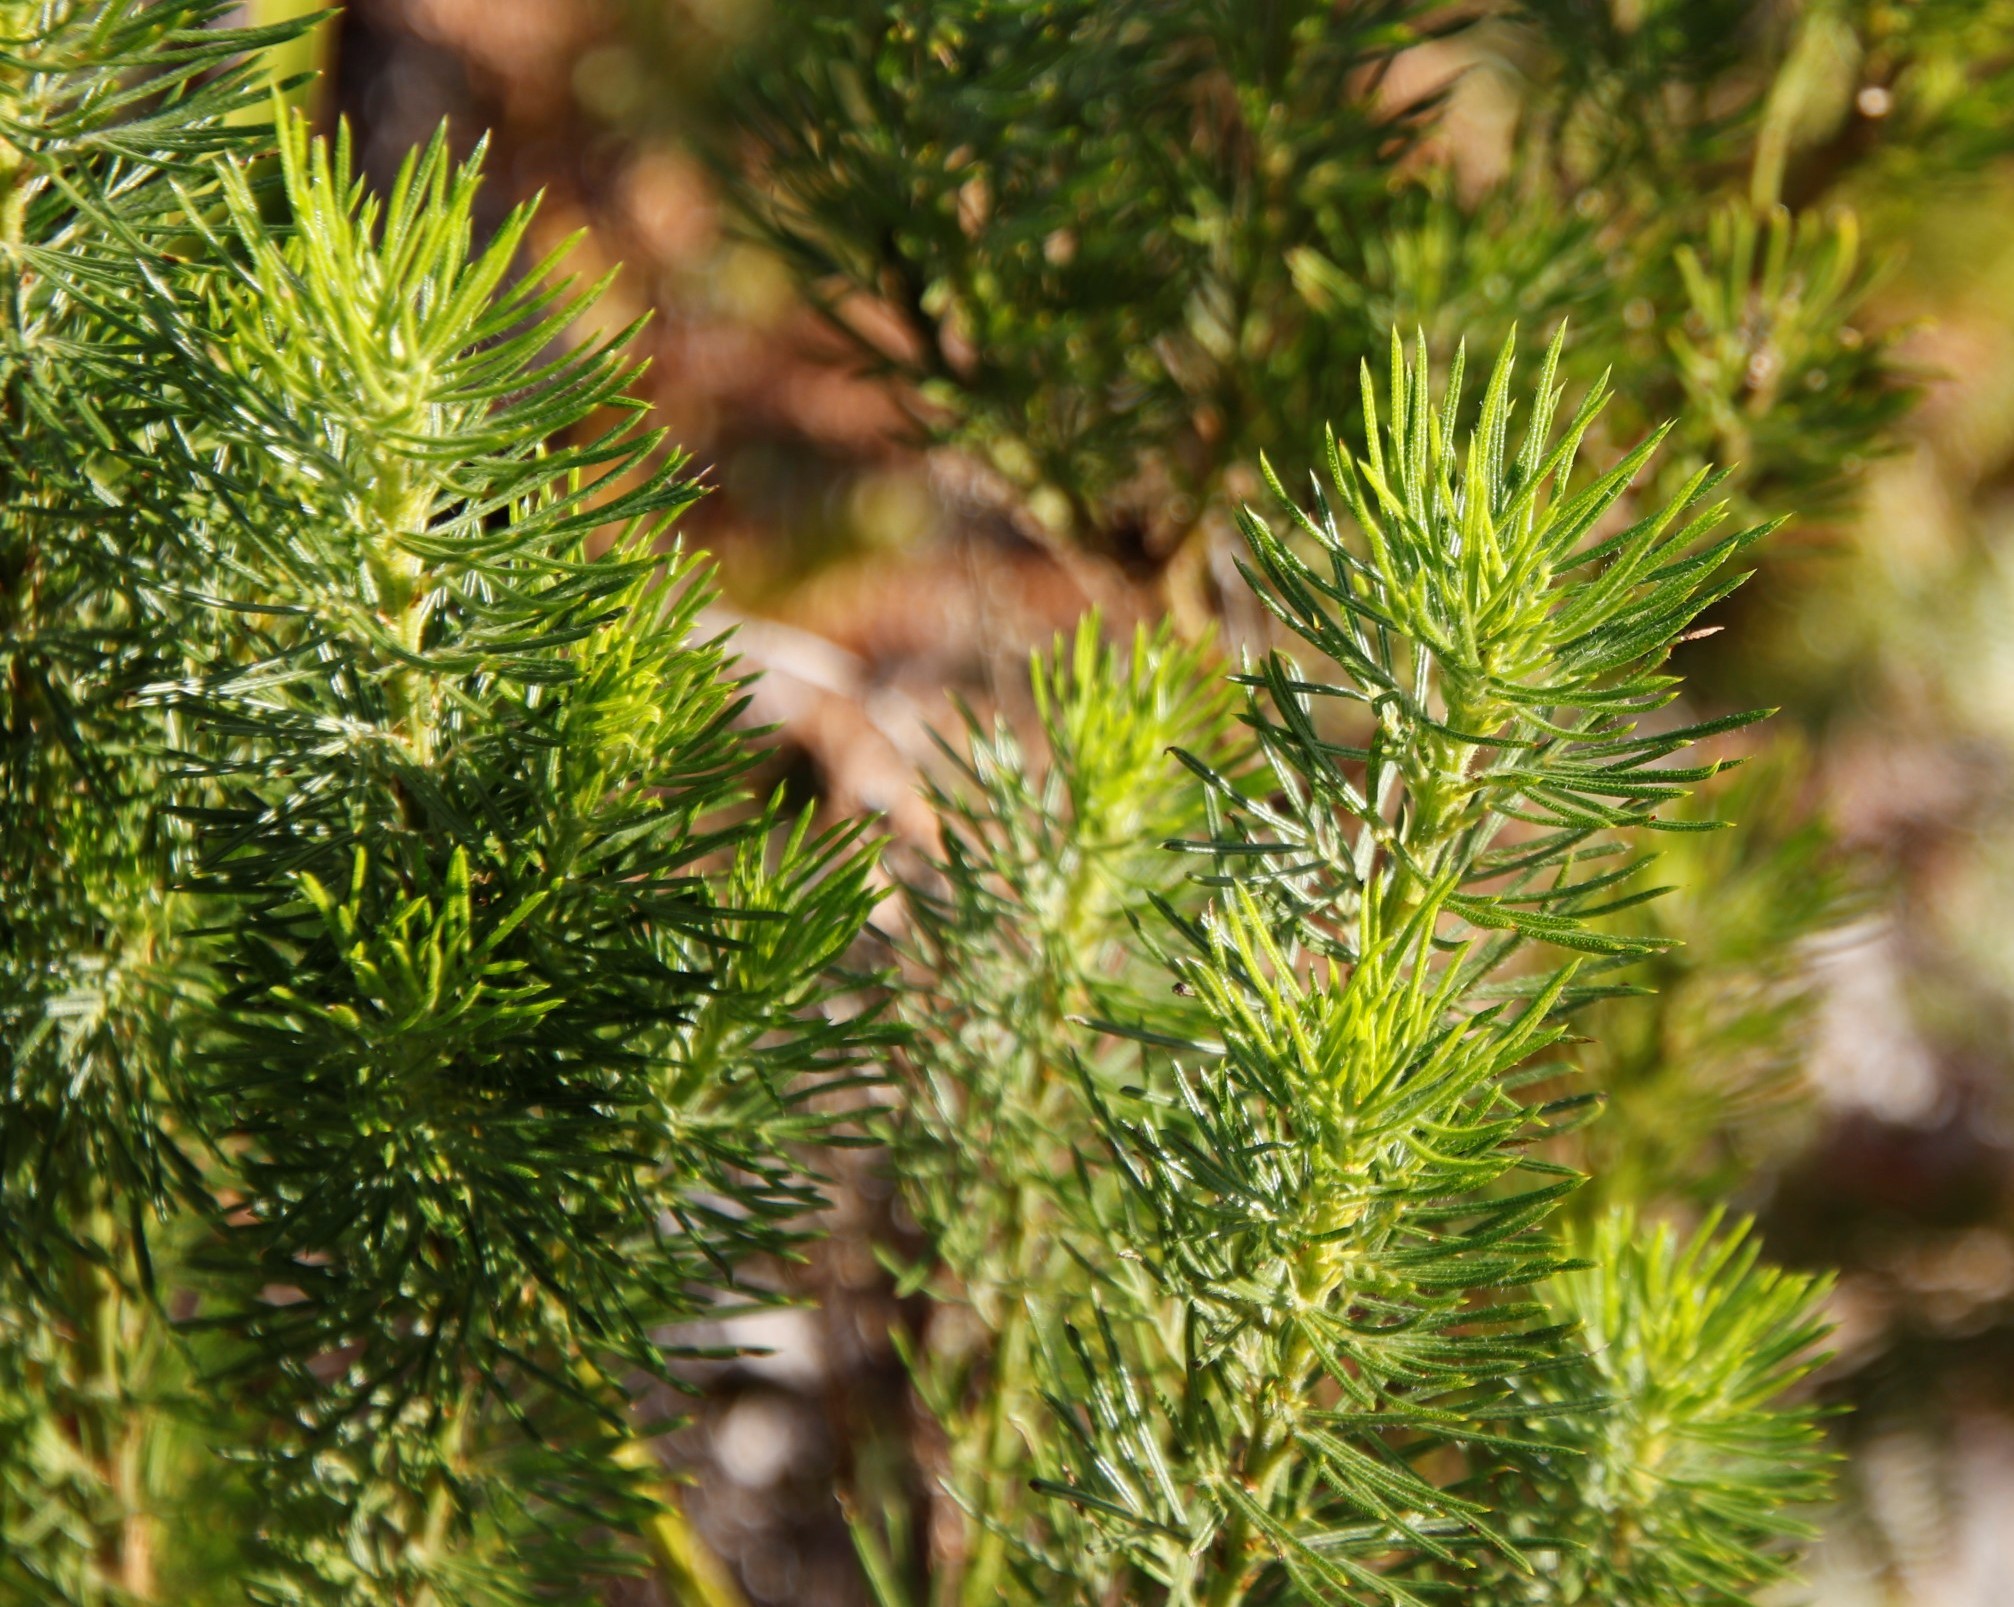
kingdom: Plantae
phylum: Tracheophyta
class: Magnoliopsida
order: Fabales
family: Fabaceae
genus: Psoralea
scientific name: Psoralea pinnata
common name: African scurfpea
